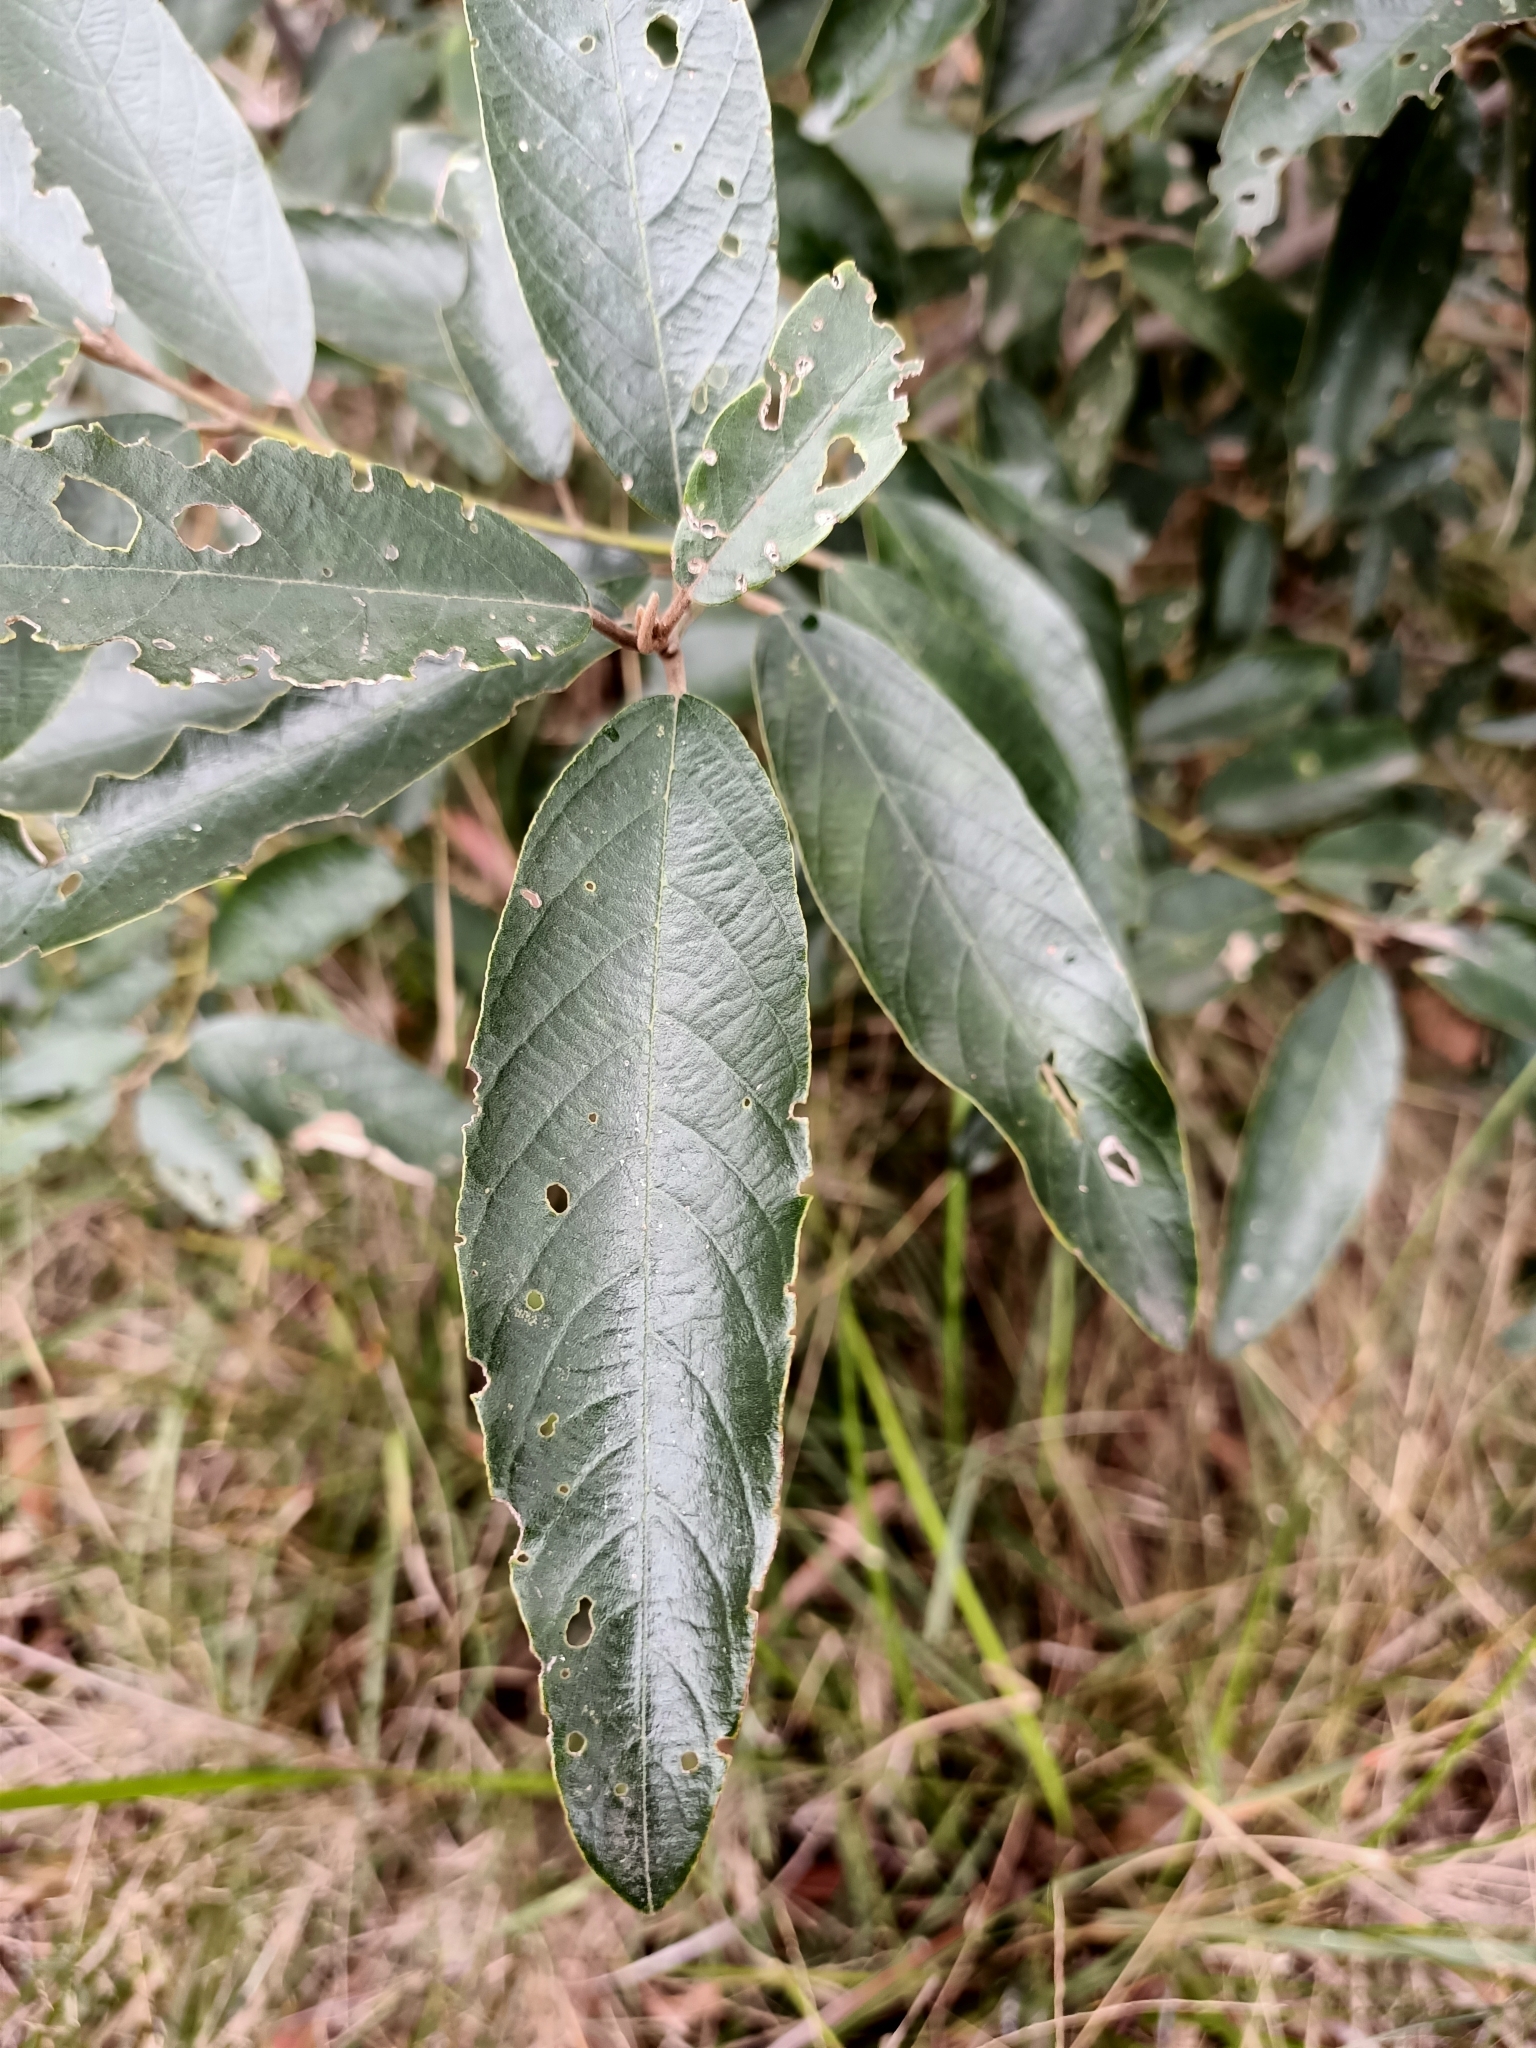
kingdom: Plantae
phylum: Tracheophyta
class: Magnoliopsida
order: Rosales
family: Rhamnaceae
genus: Alphitonia
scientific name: Alphitonia excelsa
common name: Red ash
